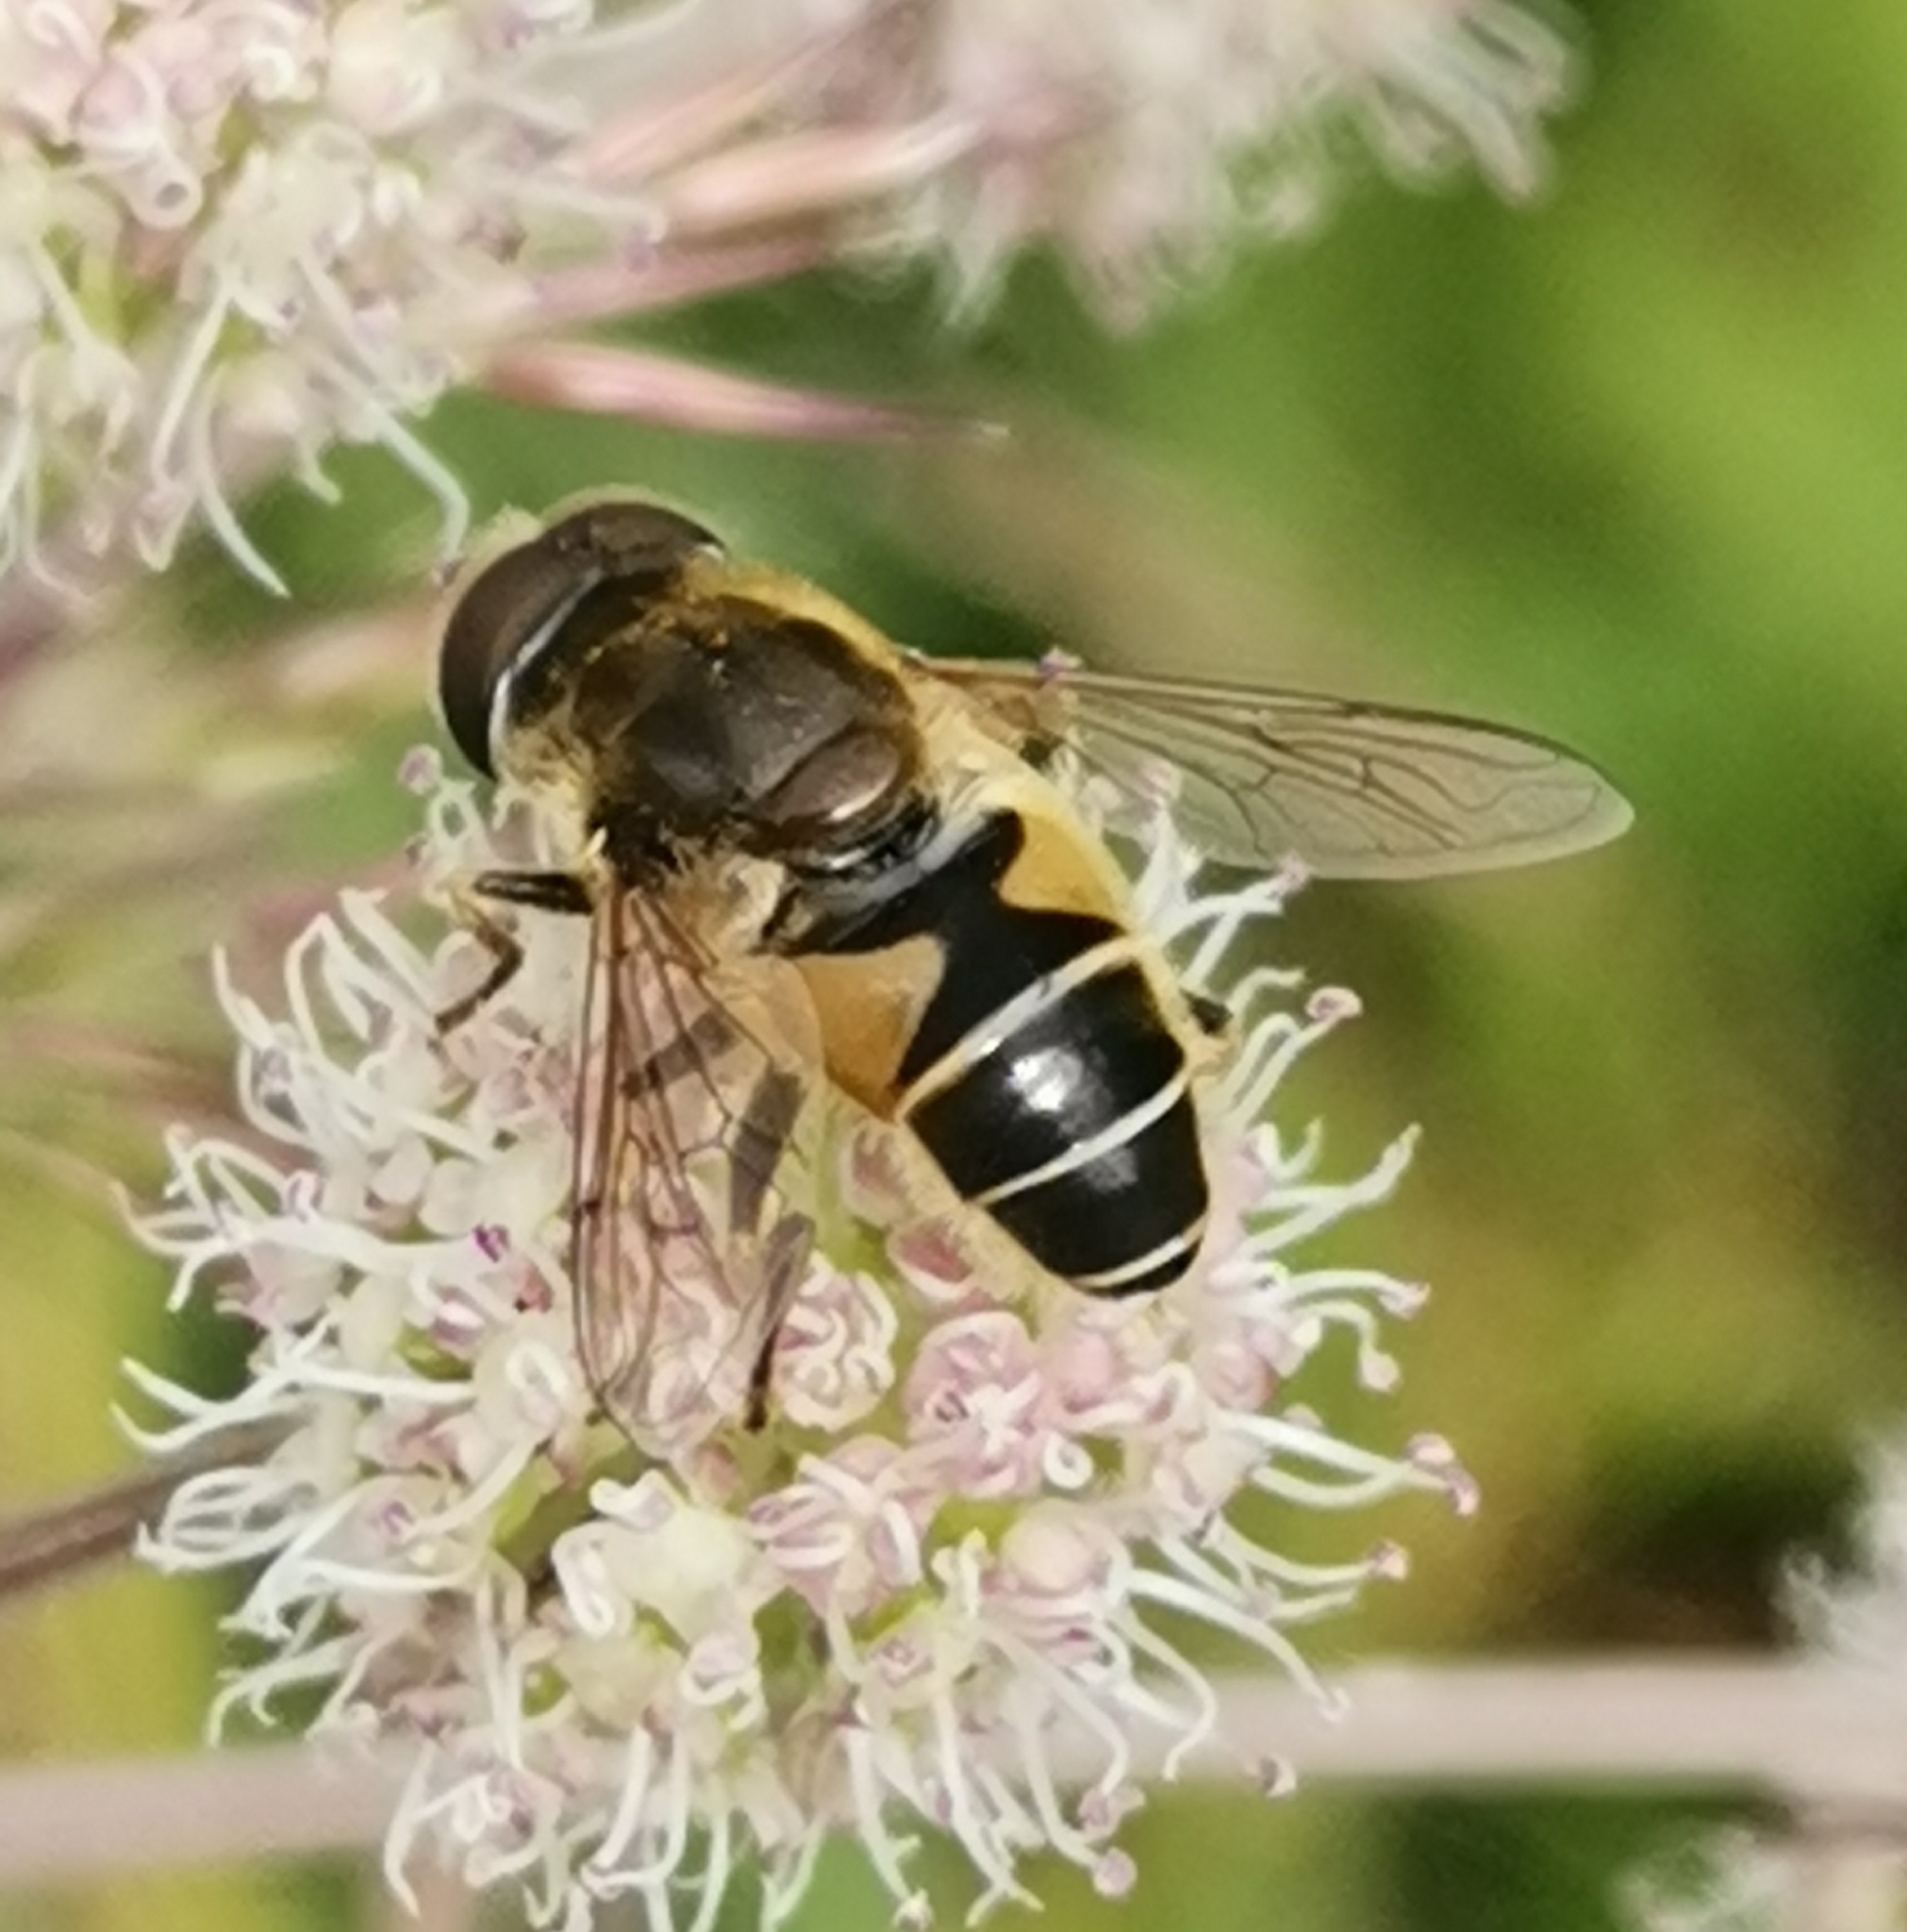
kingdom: Animalia
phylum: Arthropoda
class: Insecta
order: Diptera
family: Syrphidae
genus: Eristalis
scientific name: Eristalis nemorum
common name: Orange-spined drone fly
